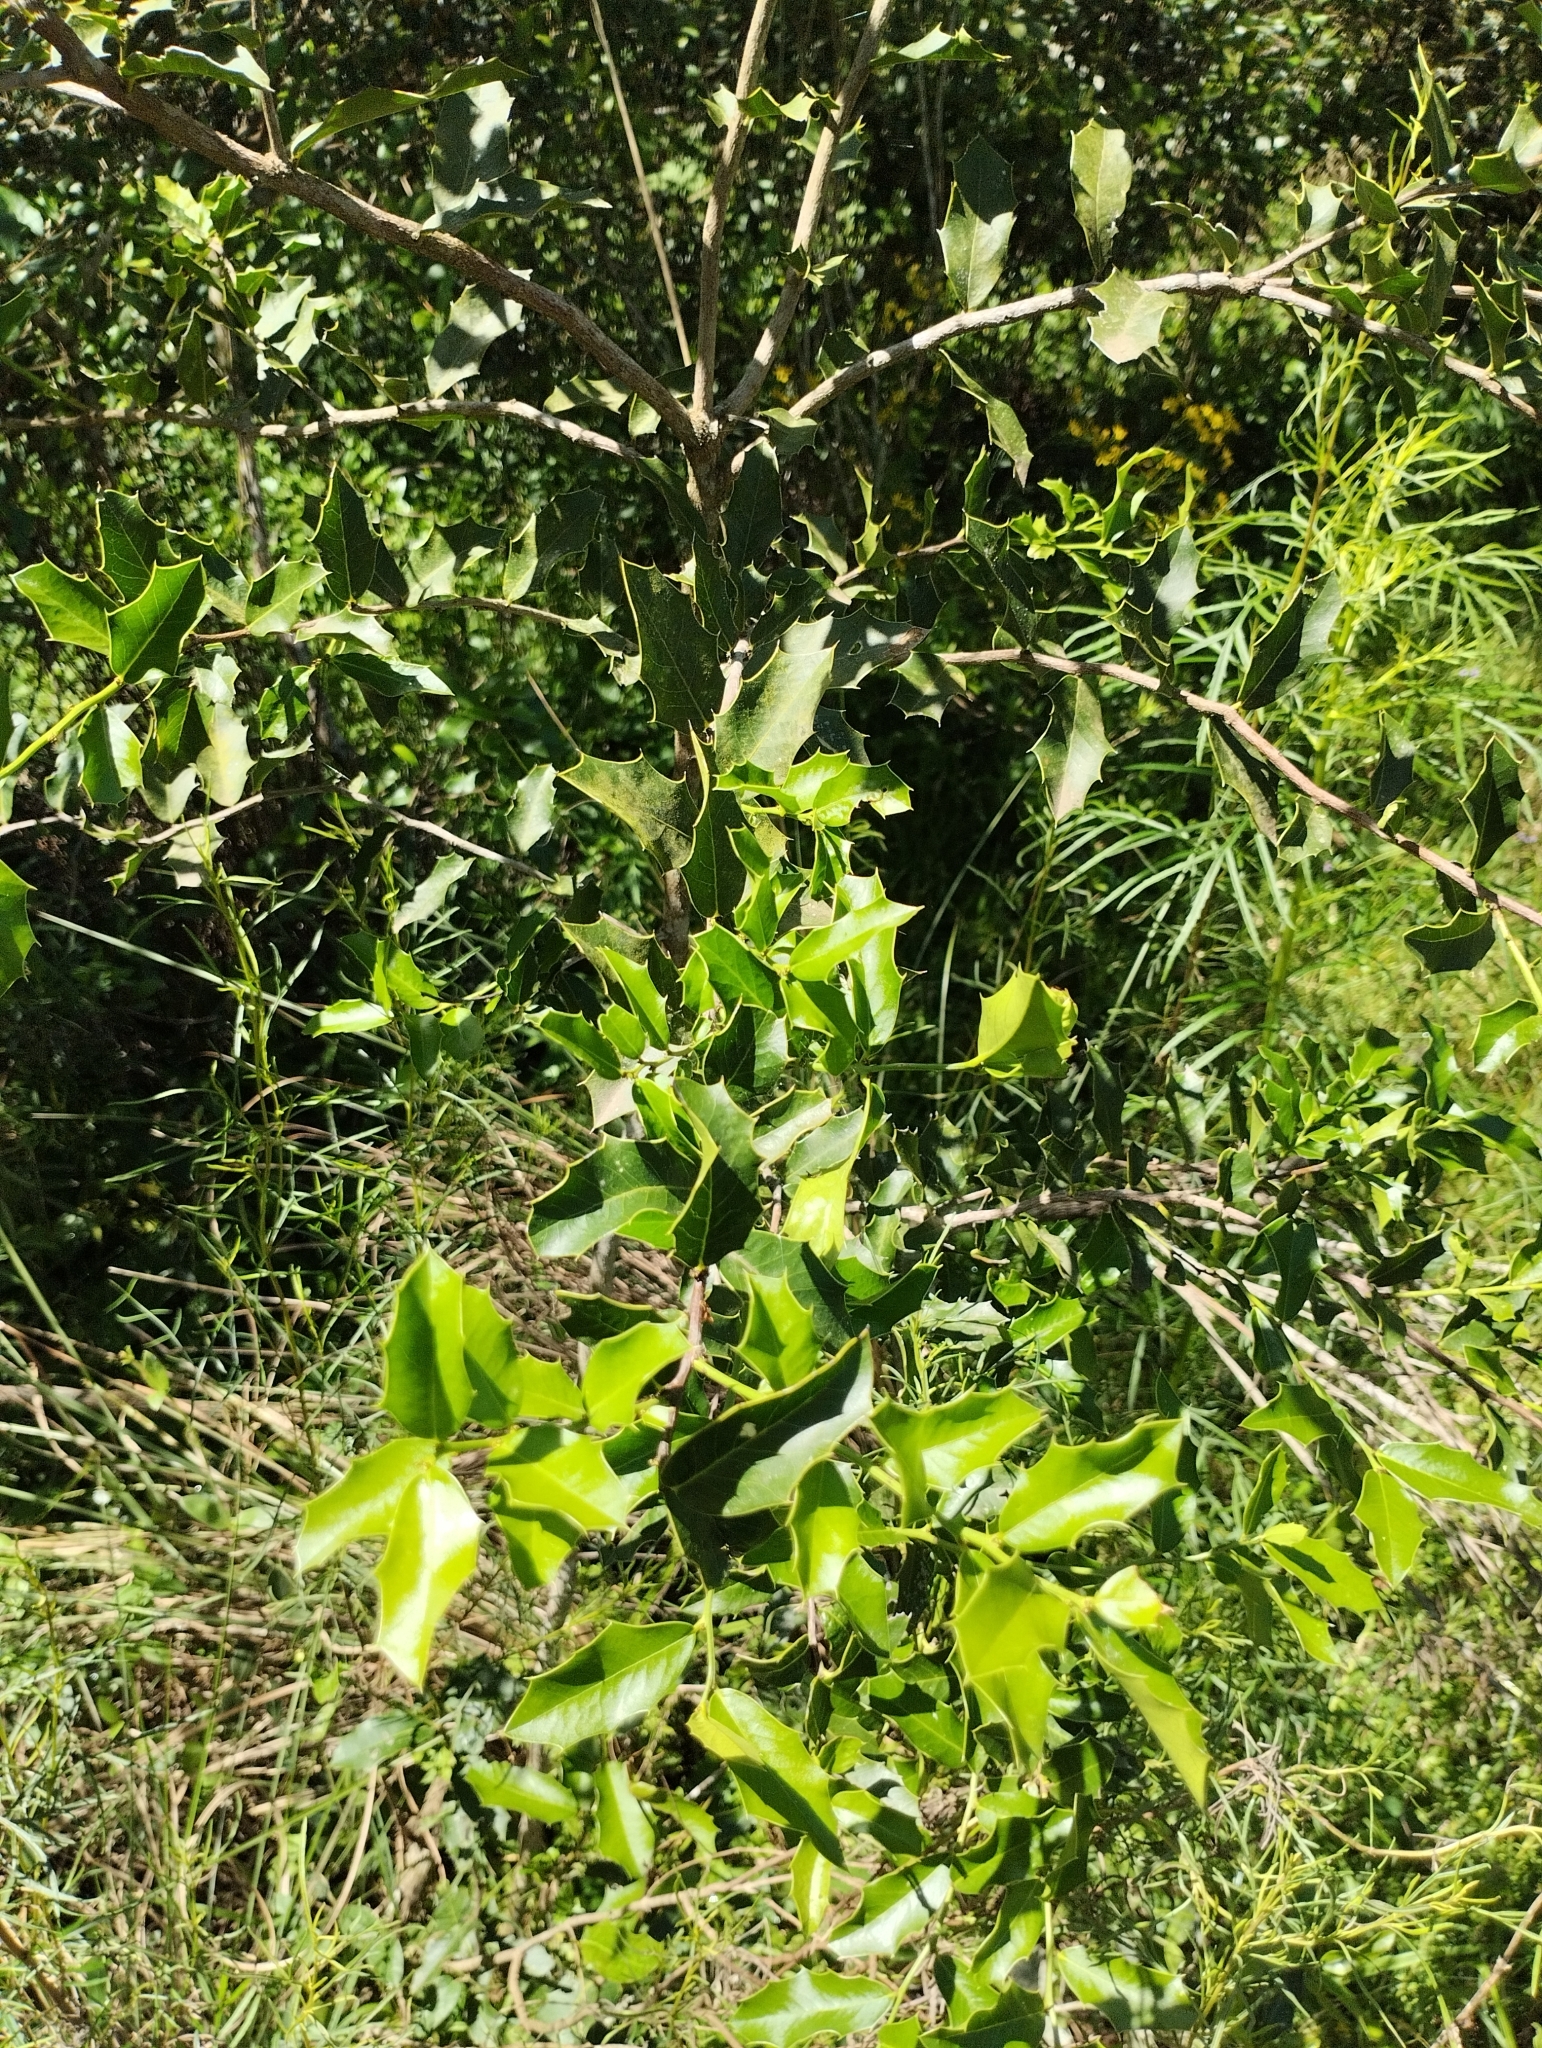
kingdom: Plantae
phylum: Tracheophyta
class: Magnoliopsida
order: Celastrales
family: Celastraceae
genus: Monteverdia
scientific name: Monteverdia
